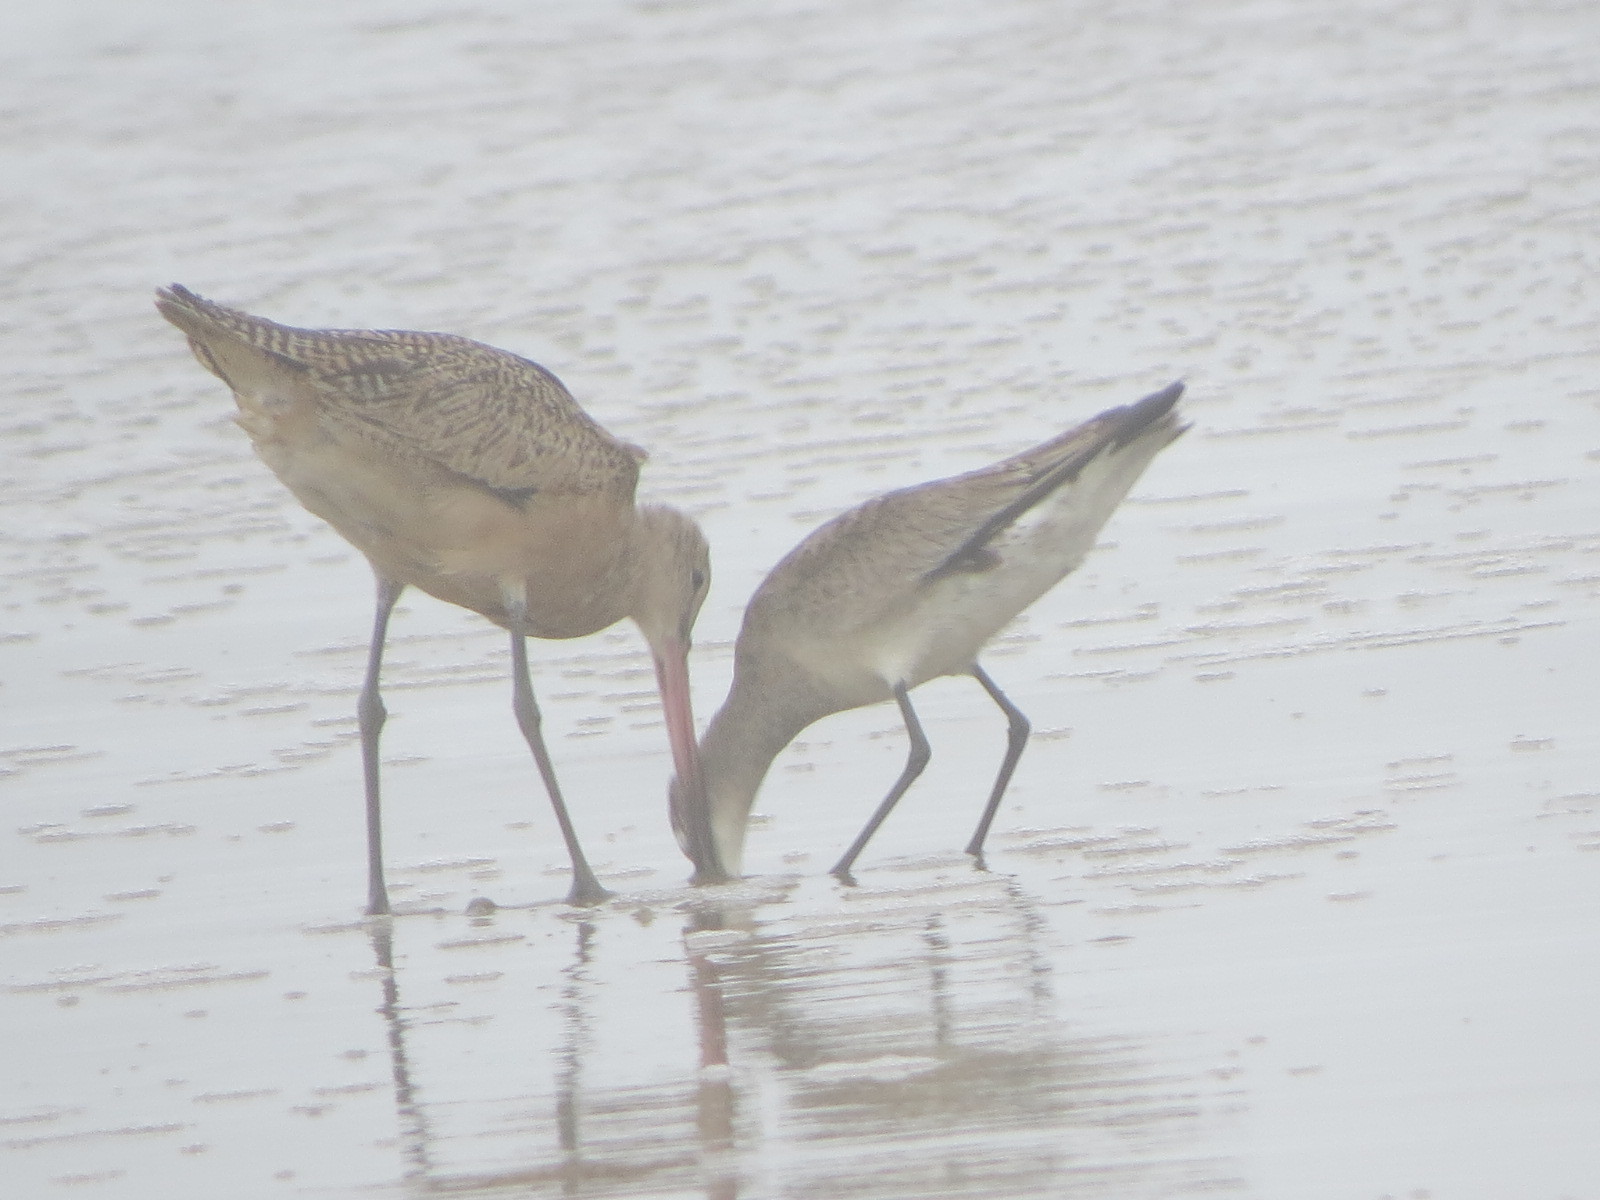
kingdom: Animalia
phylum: Chordata
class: Aves
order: Charadriiformes
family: Scolopacidae
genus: Limosa
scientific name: Limosa haemastica
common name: Hudsonian godwit
